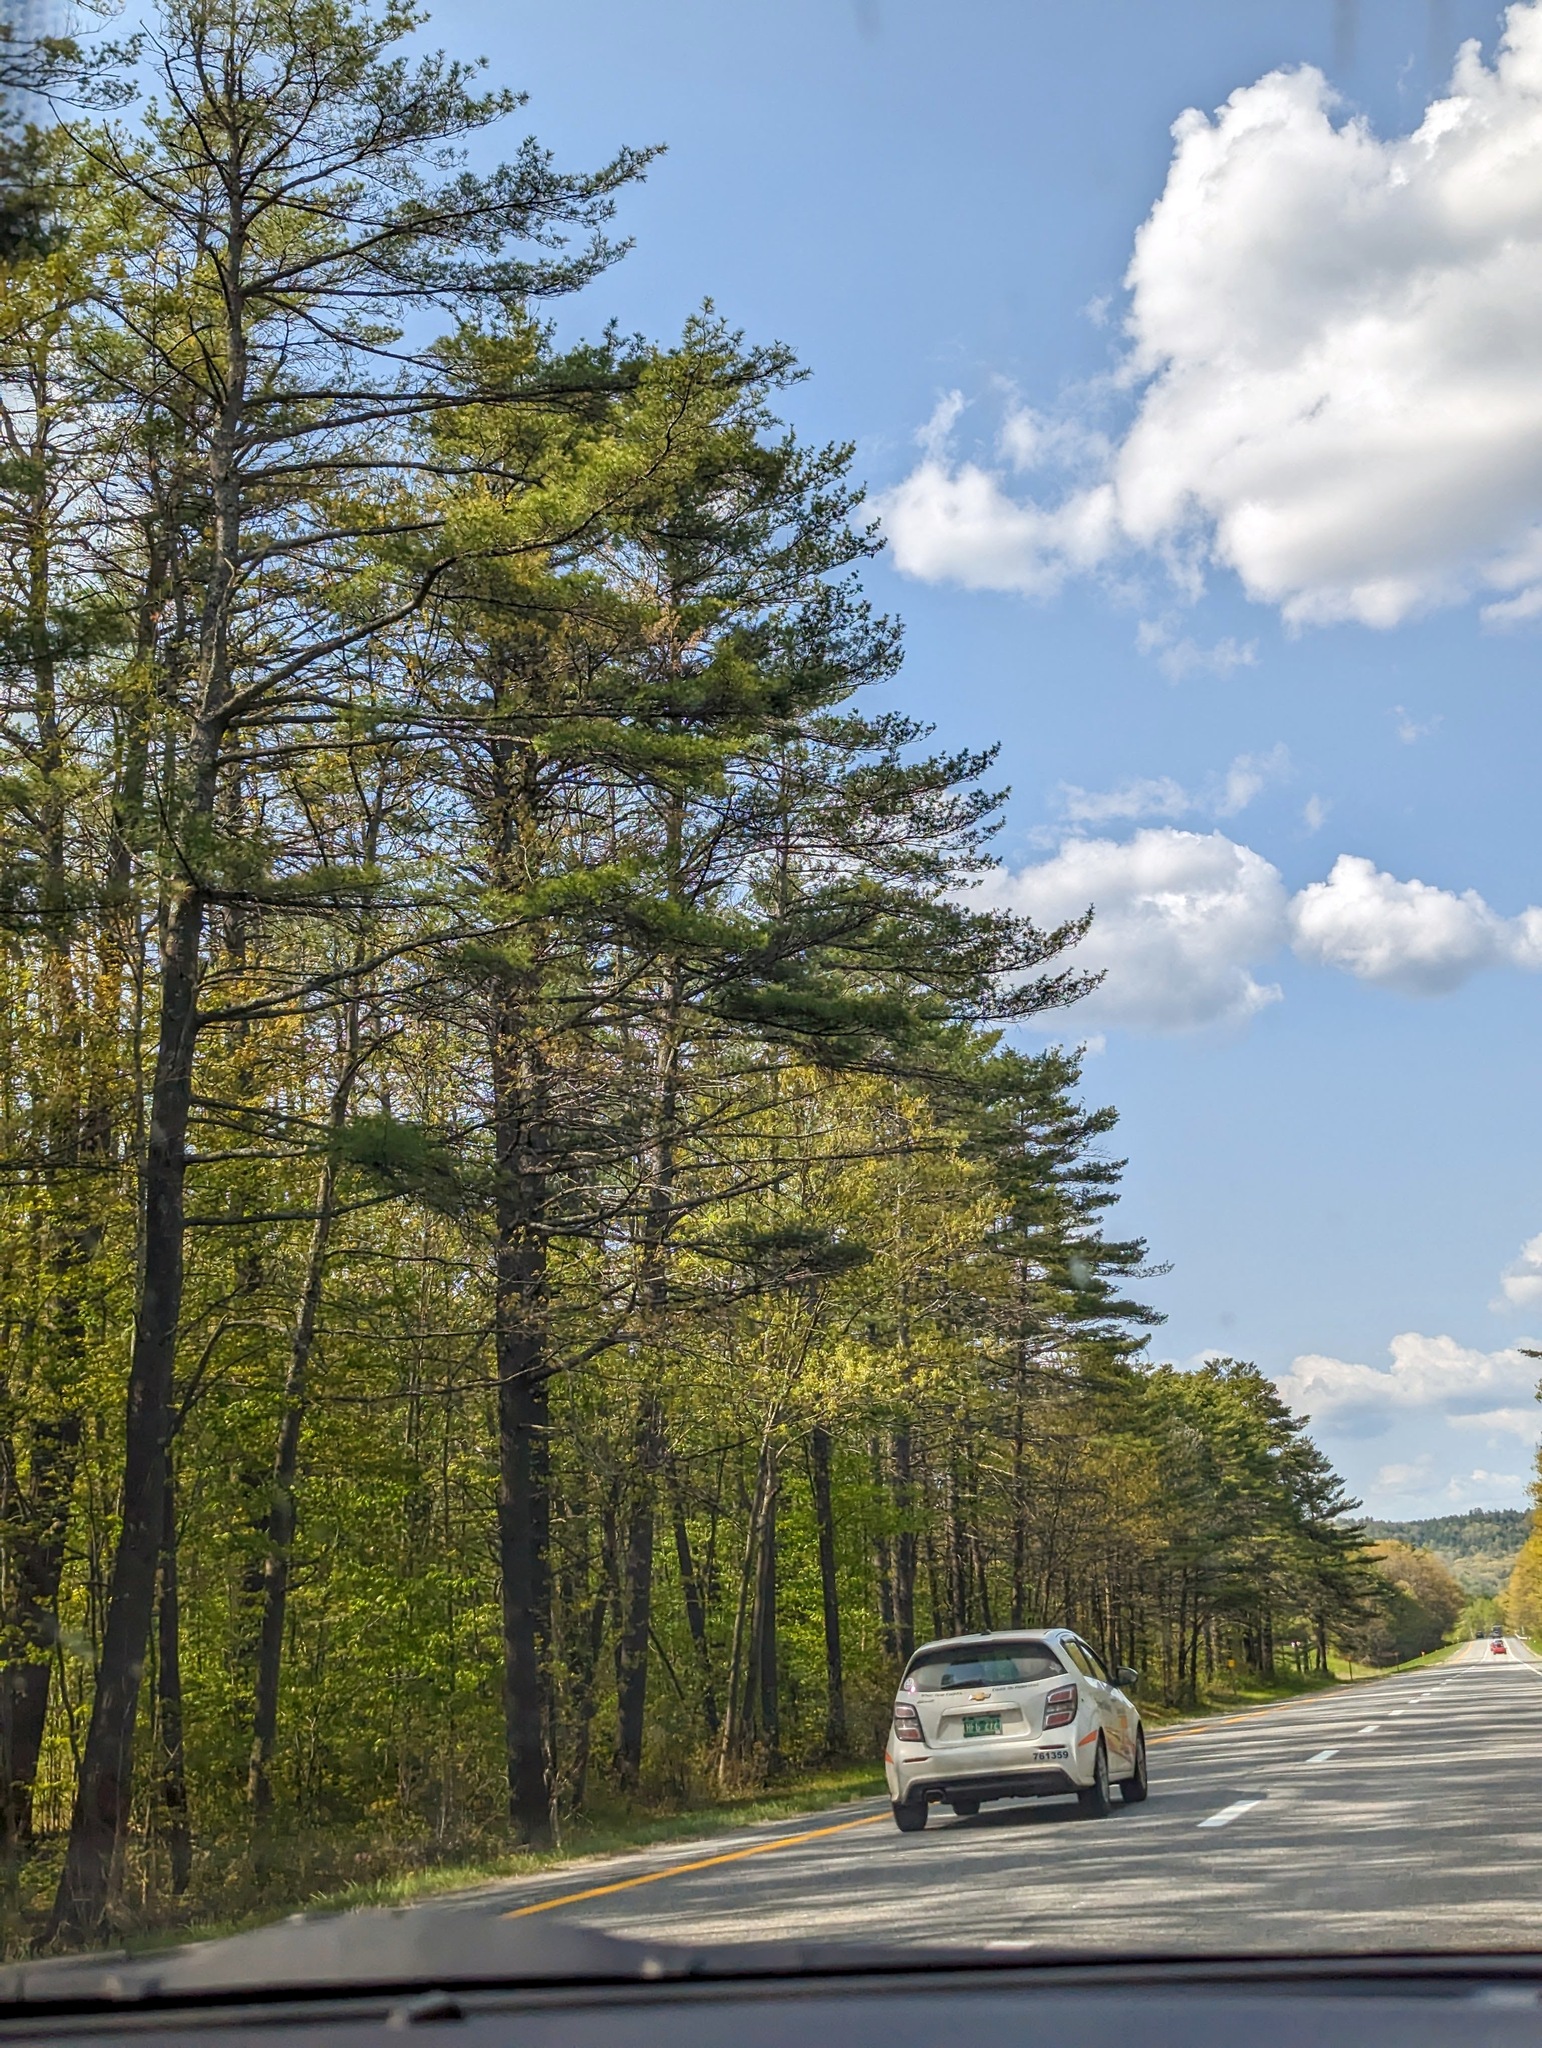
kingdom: Plantae
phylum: Tracheophyta
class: Pinopsida
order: Pinales
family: Pinaceae
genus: Pinus
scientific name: Pinus strobus
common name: Weymouth pine
